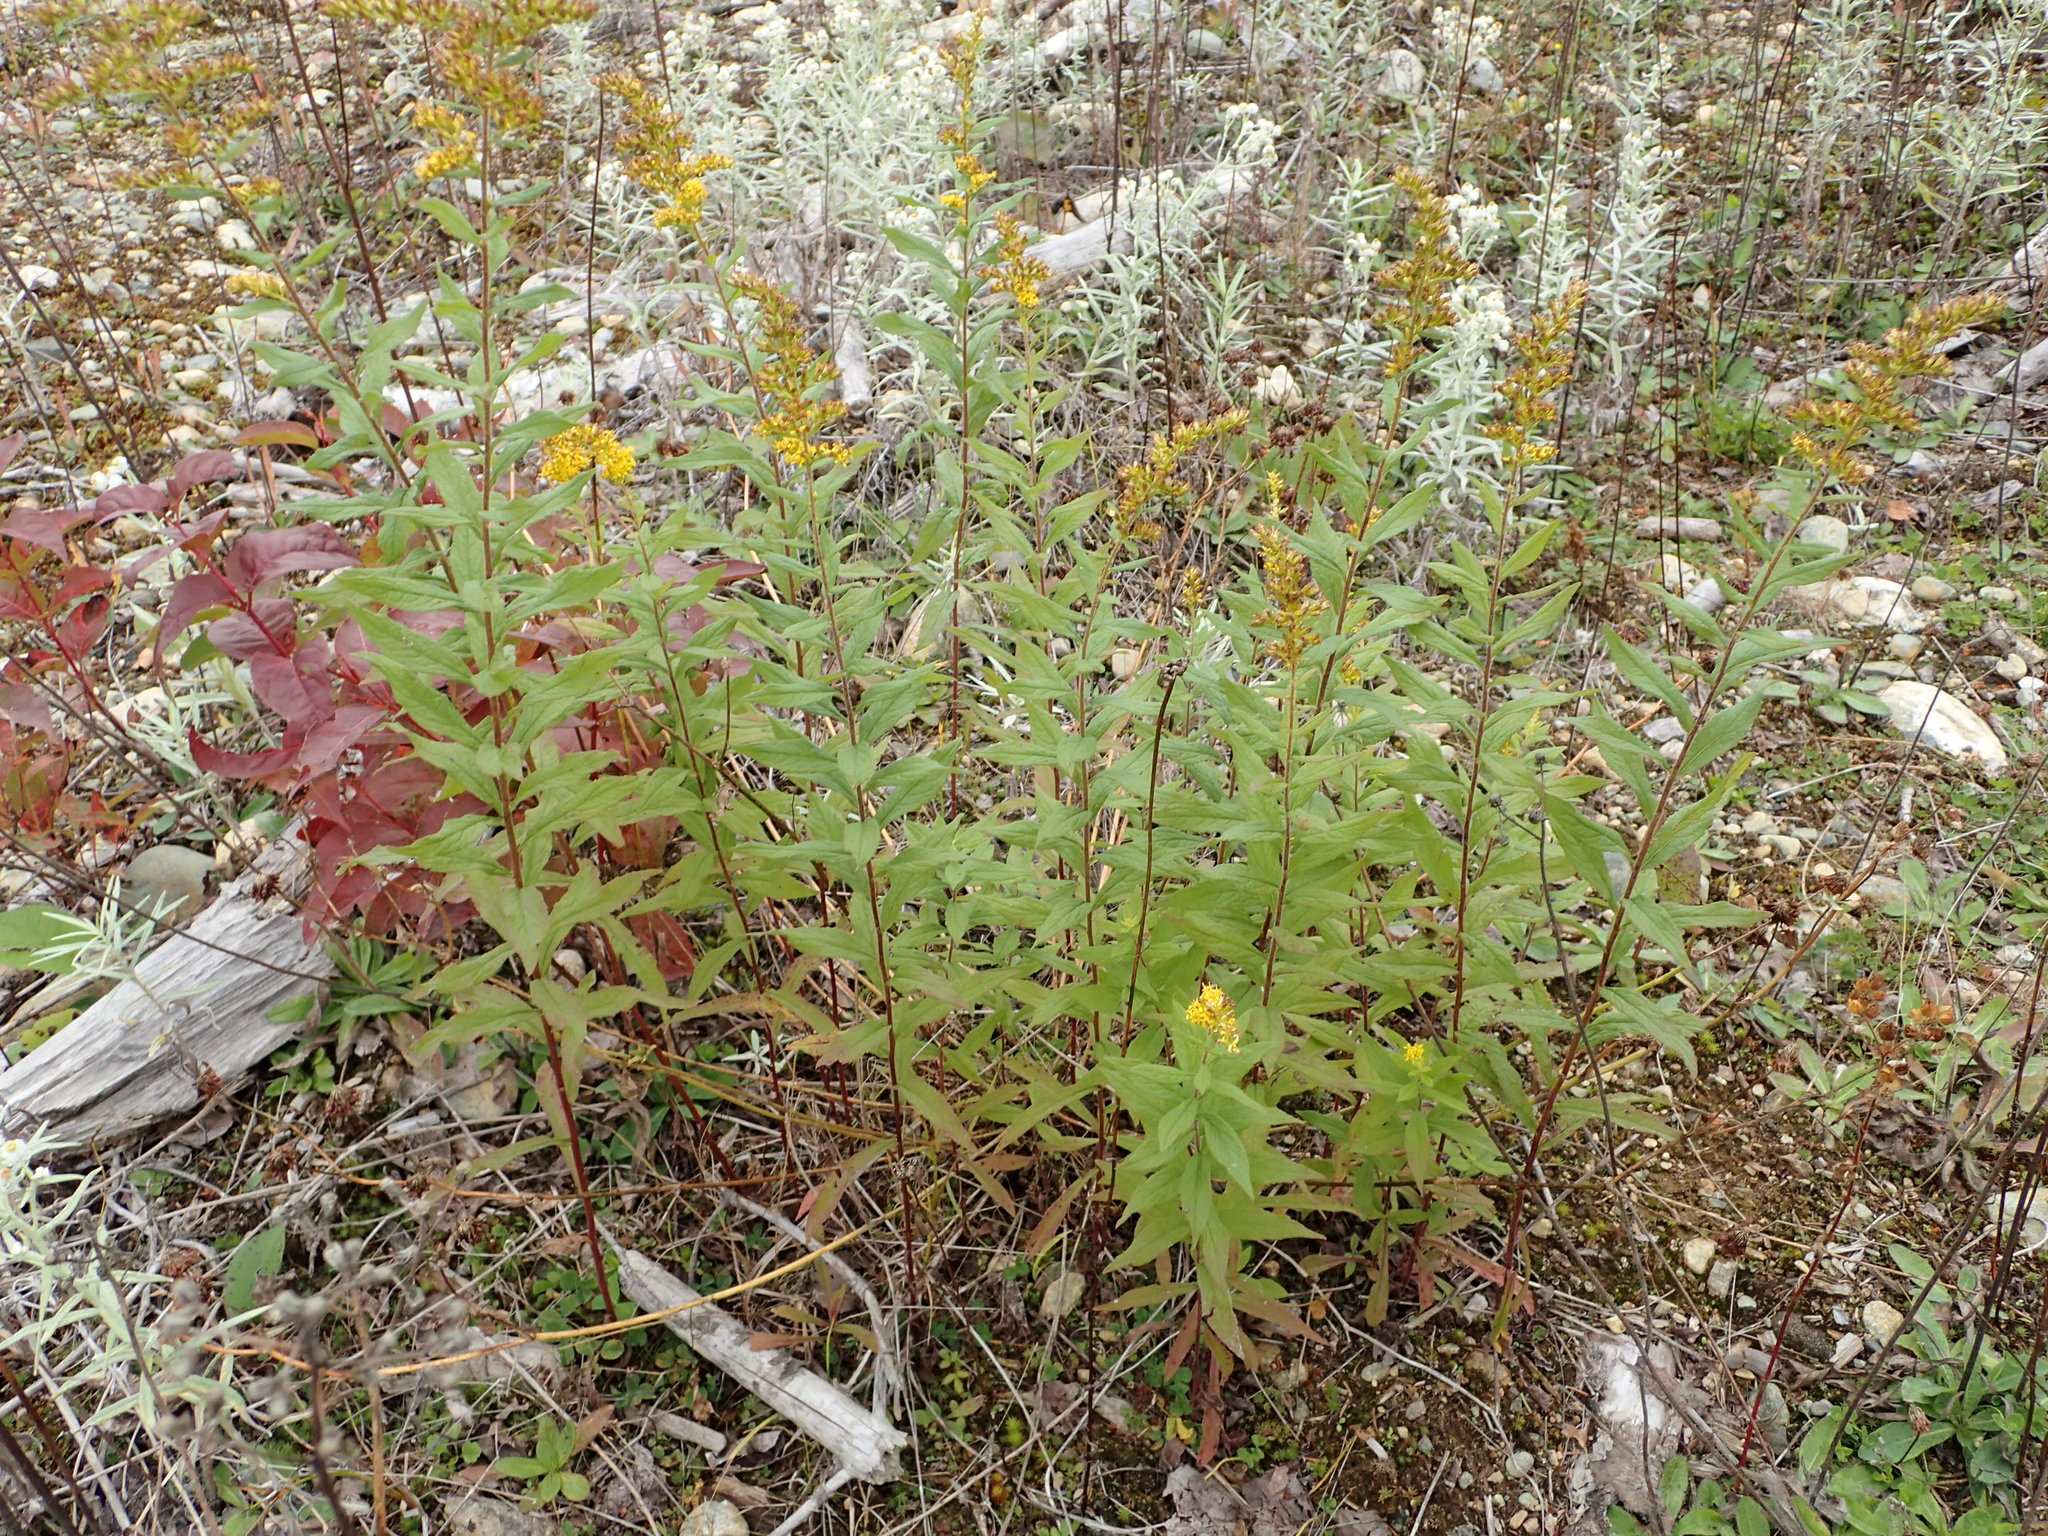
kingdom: Plantae
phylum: Tracheophyta
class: Magnoliopsida
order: Asterales
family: Asteraceae
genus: Solidago
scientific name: Solidago rugosa
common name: Rough-stemmed goldenrod
